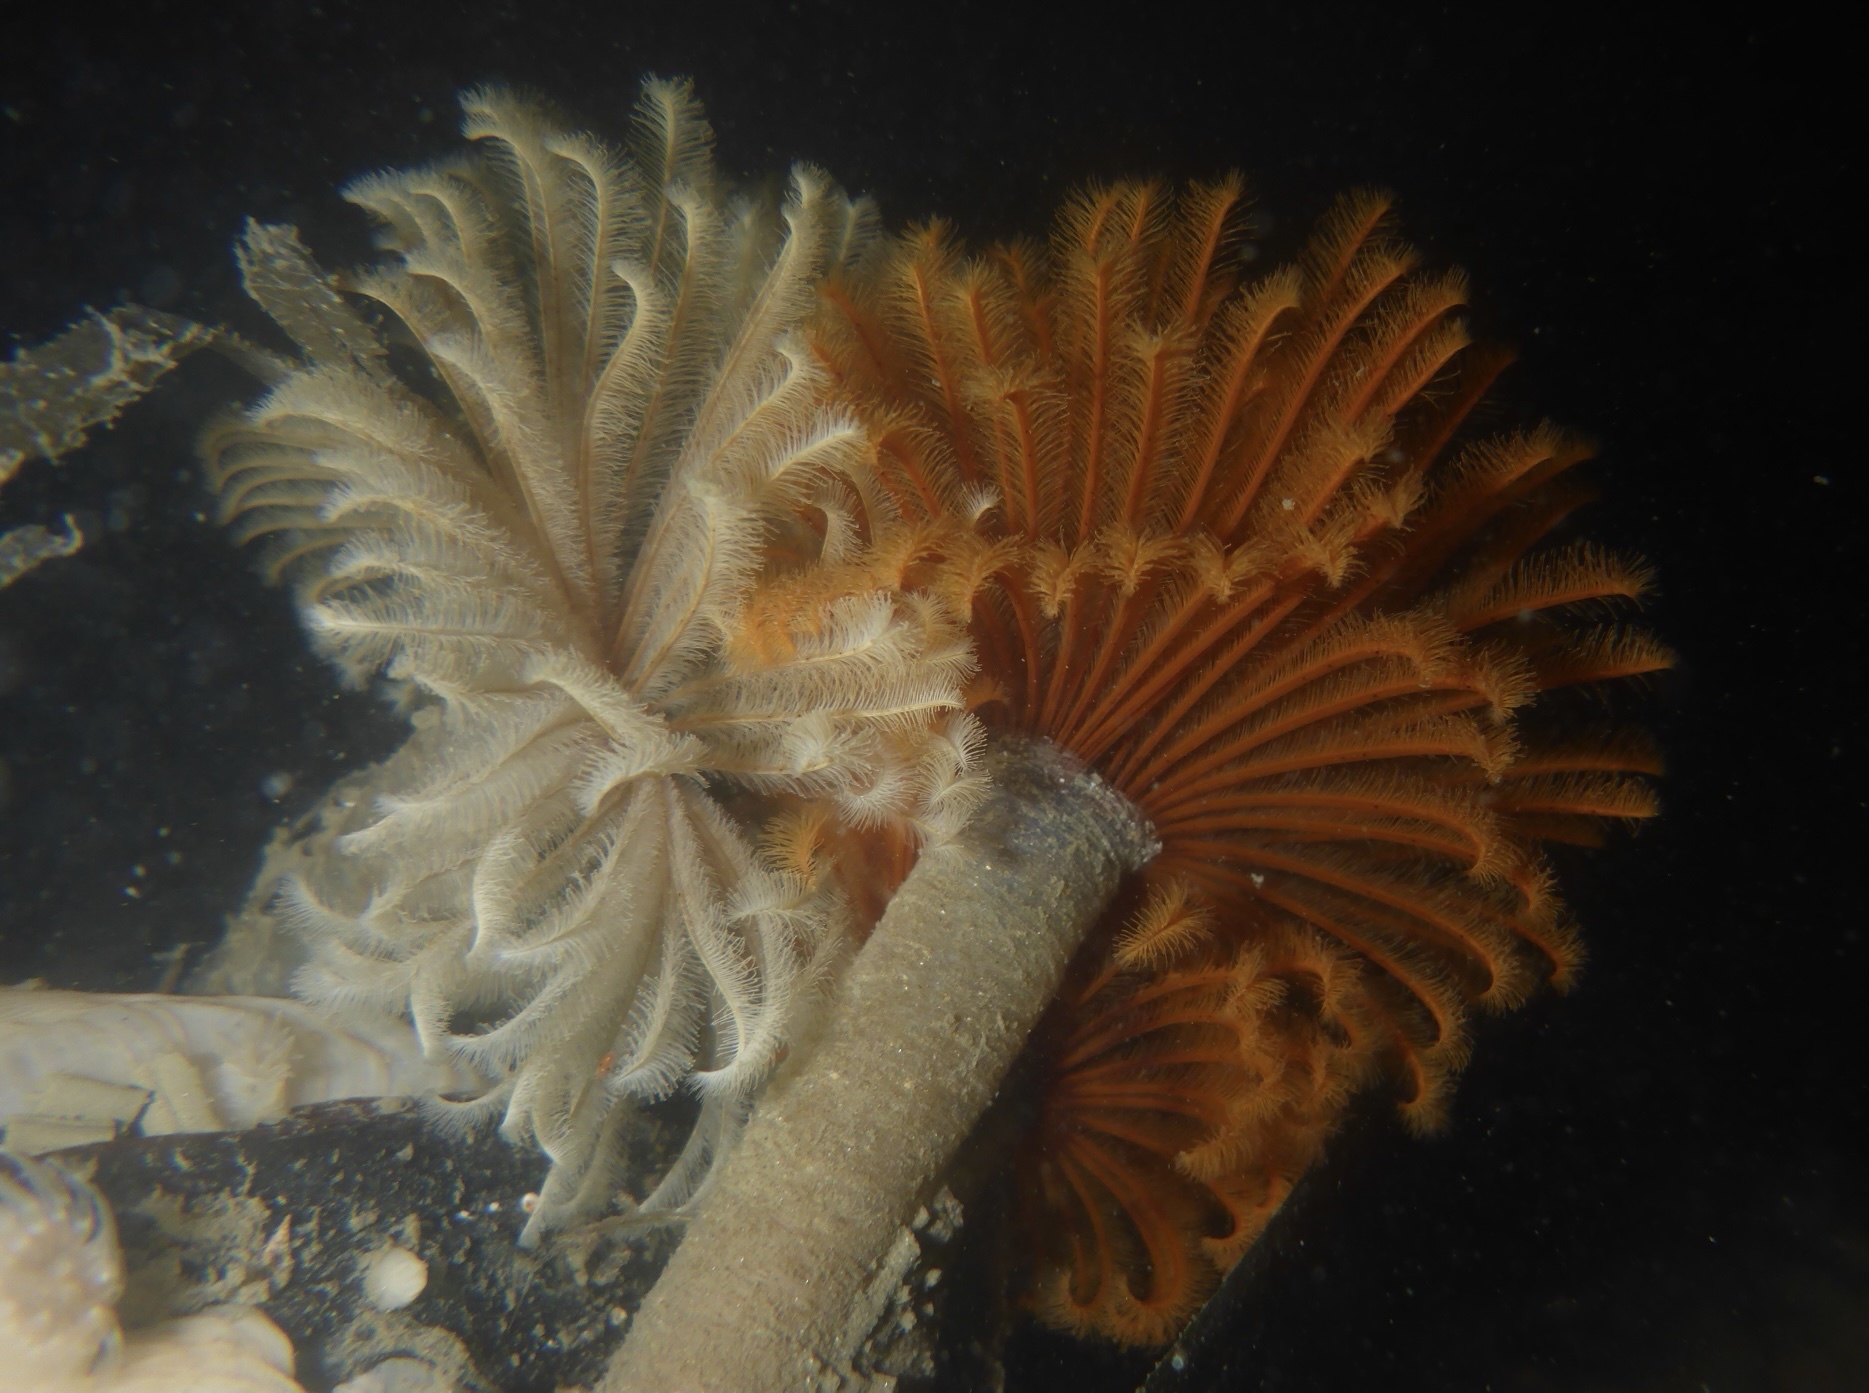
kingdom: Animalia
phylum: Annelida
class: Polychaeta
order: Sabellida
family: Sabellidae
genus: Eudistylia
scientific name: Eudistylia polymorpha
